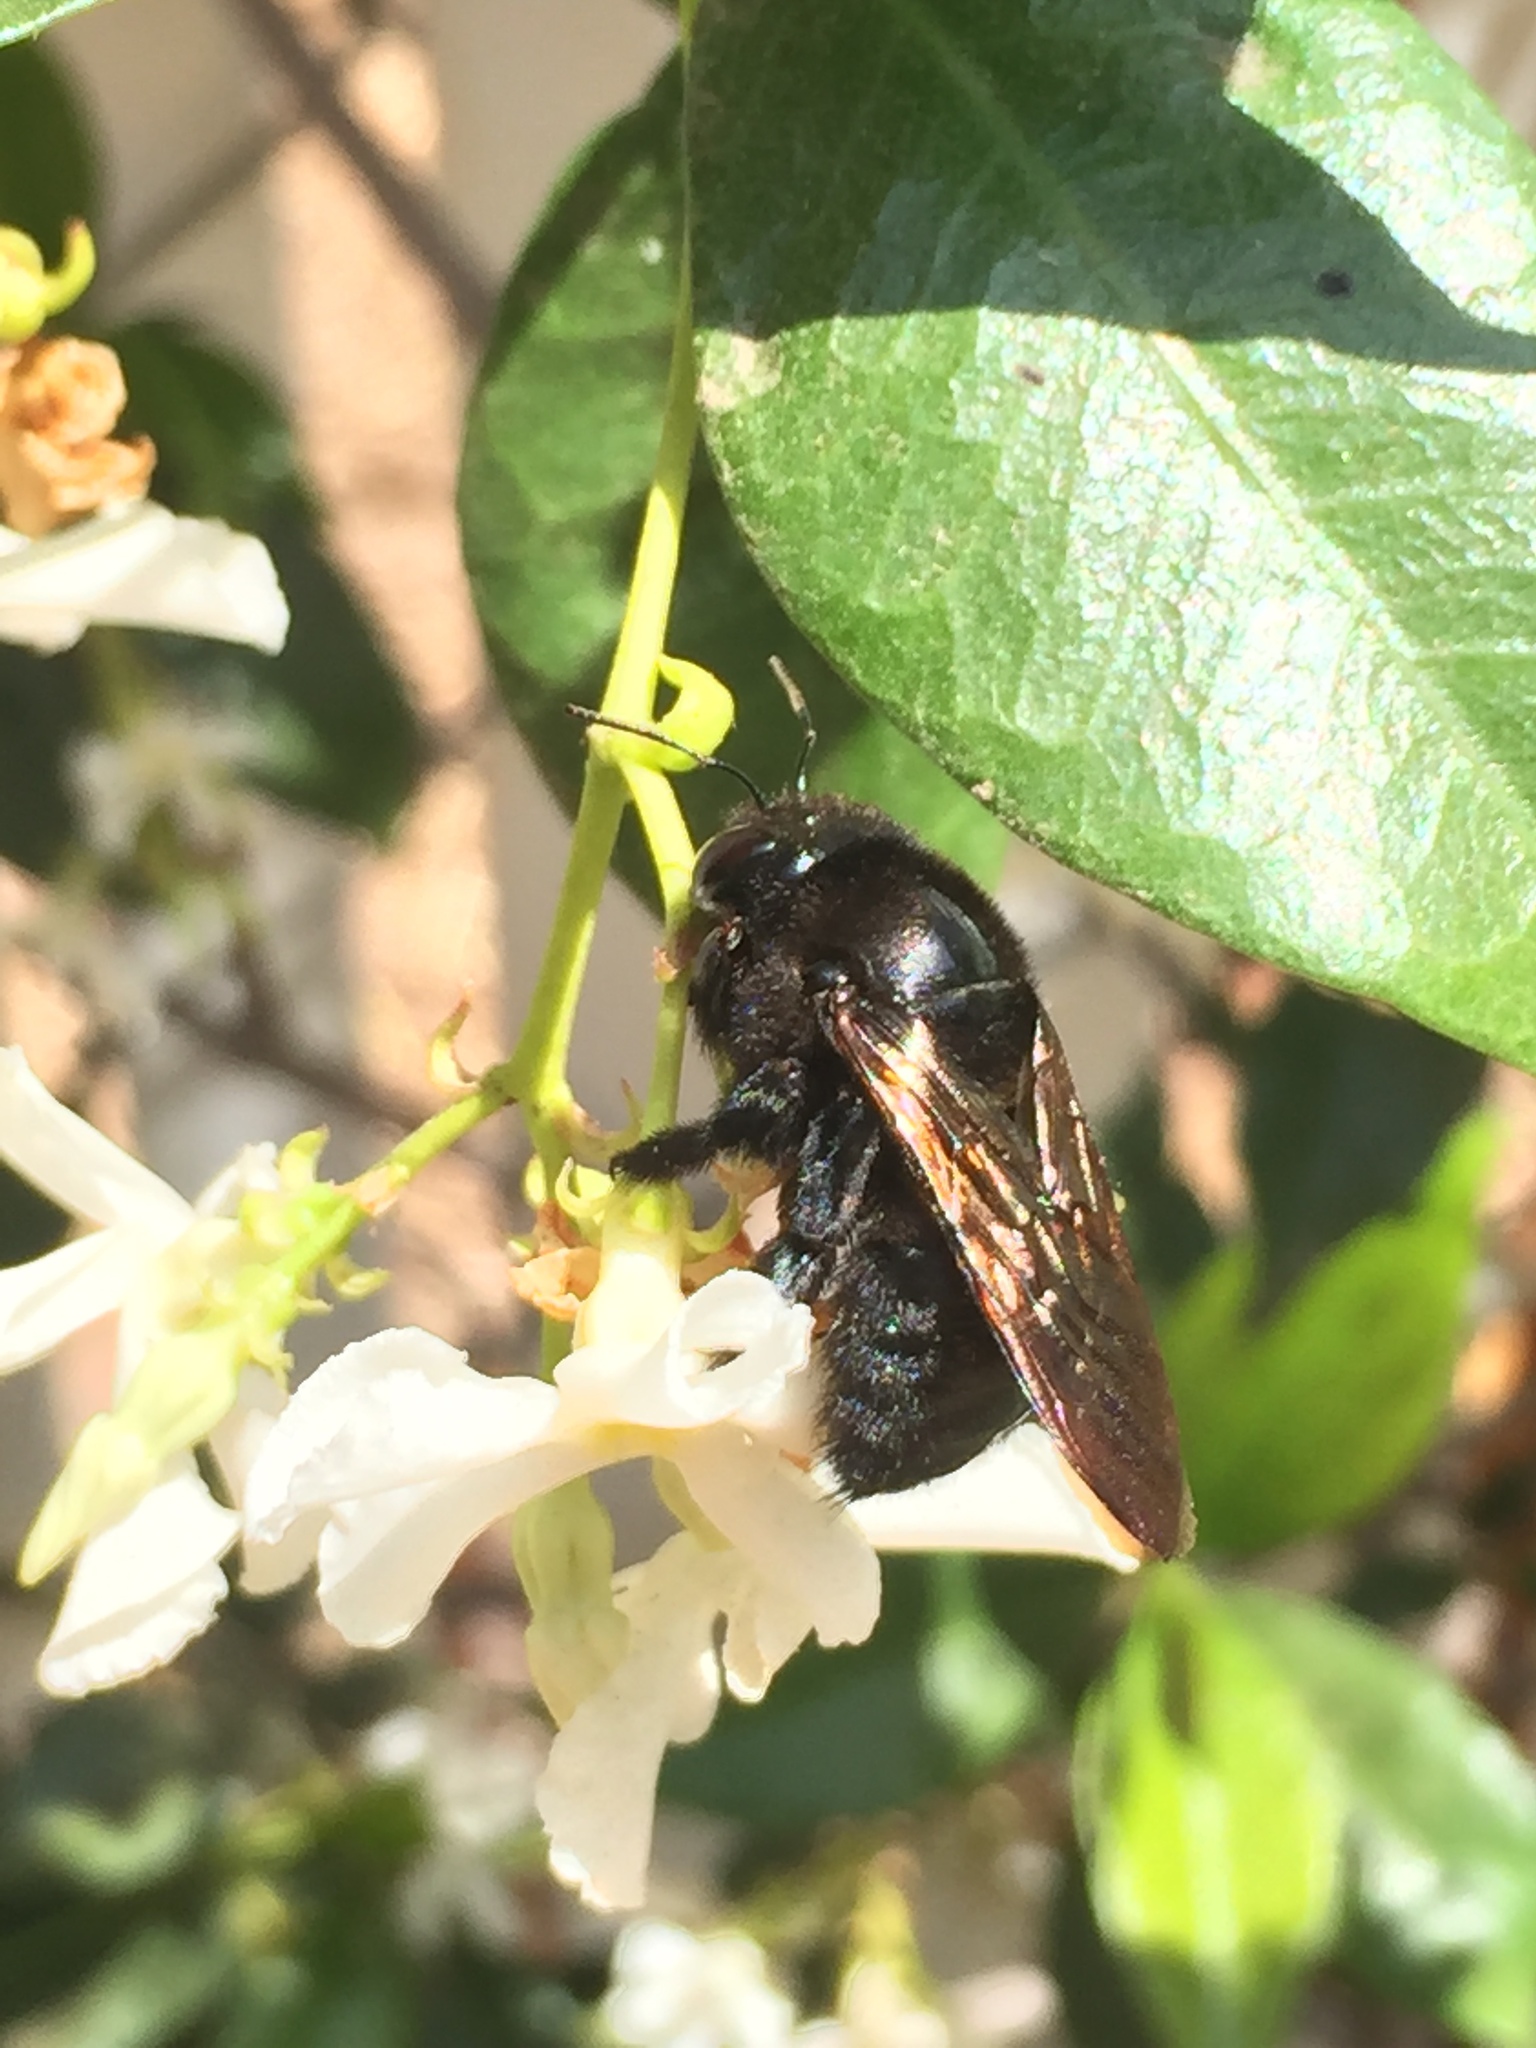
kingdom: Animalia
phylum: Arthropoda
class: Insecta
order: Hymenoptera
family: Apidae
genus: Xylocopa
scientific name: Xylocopa sonorina
